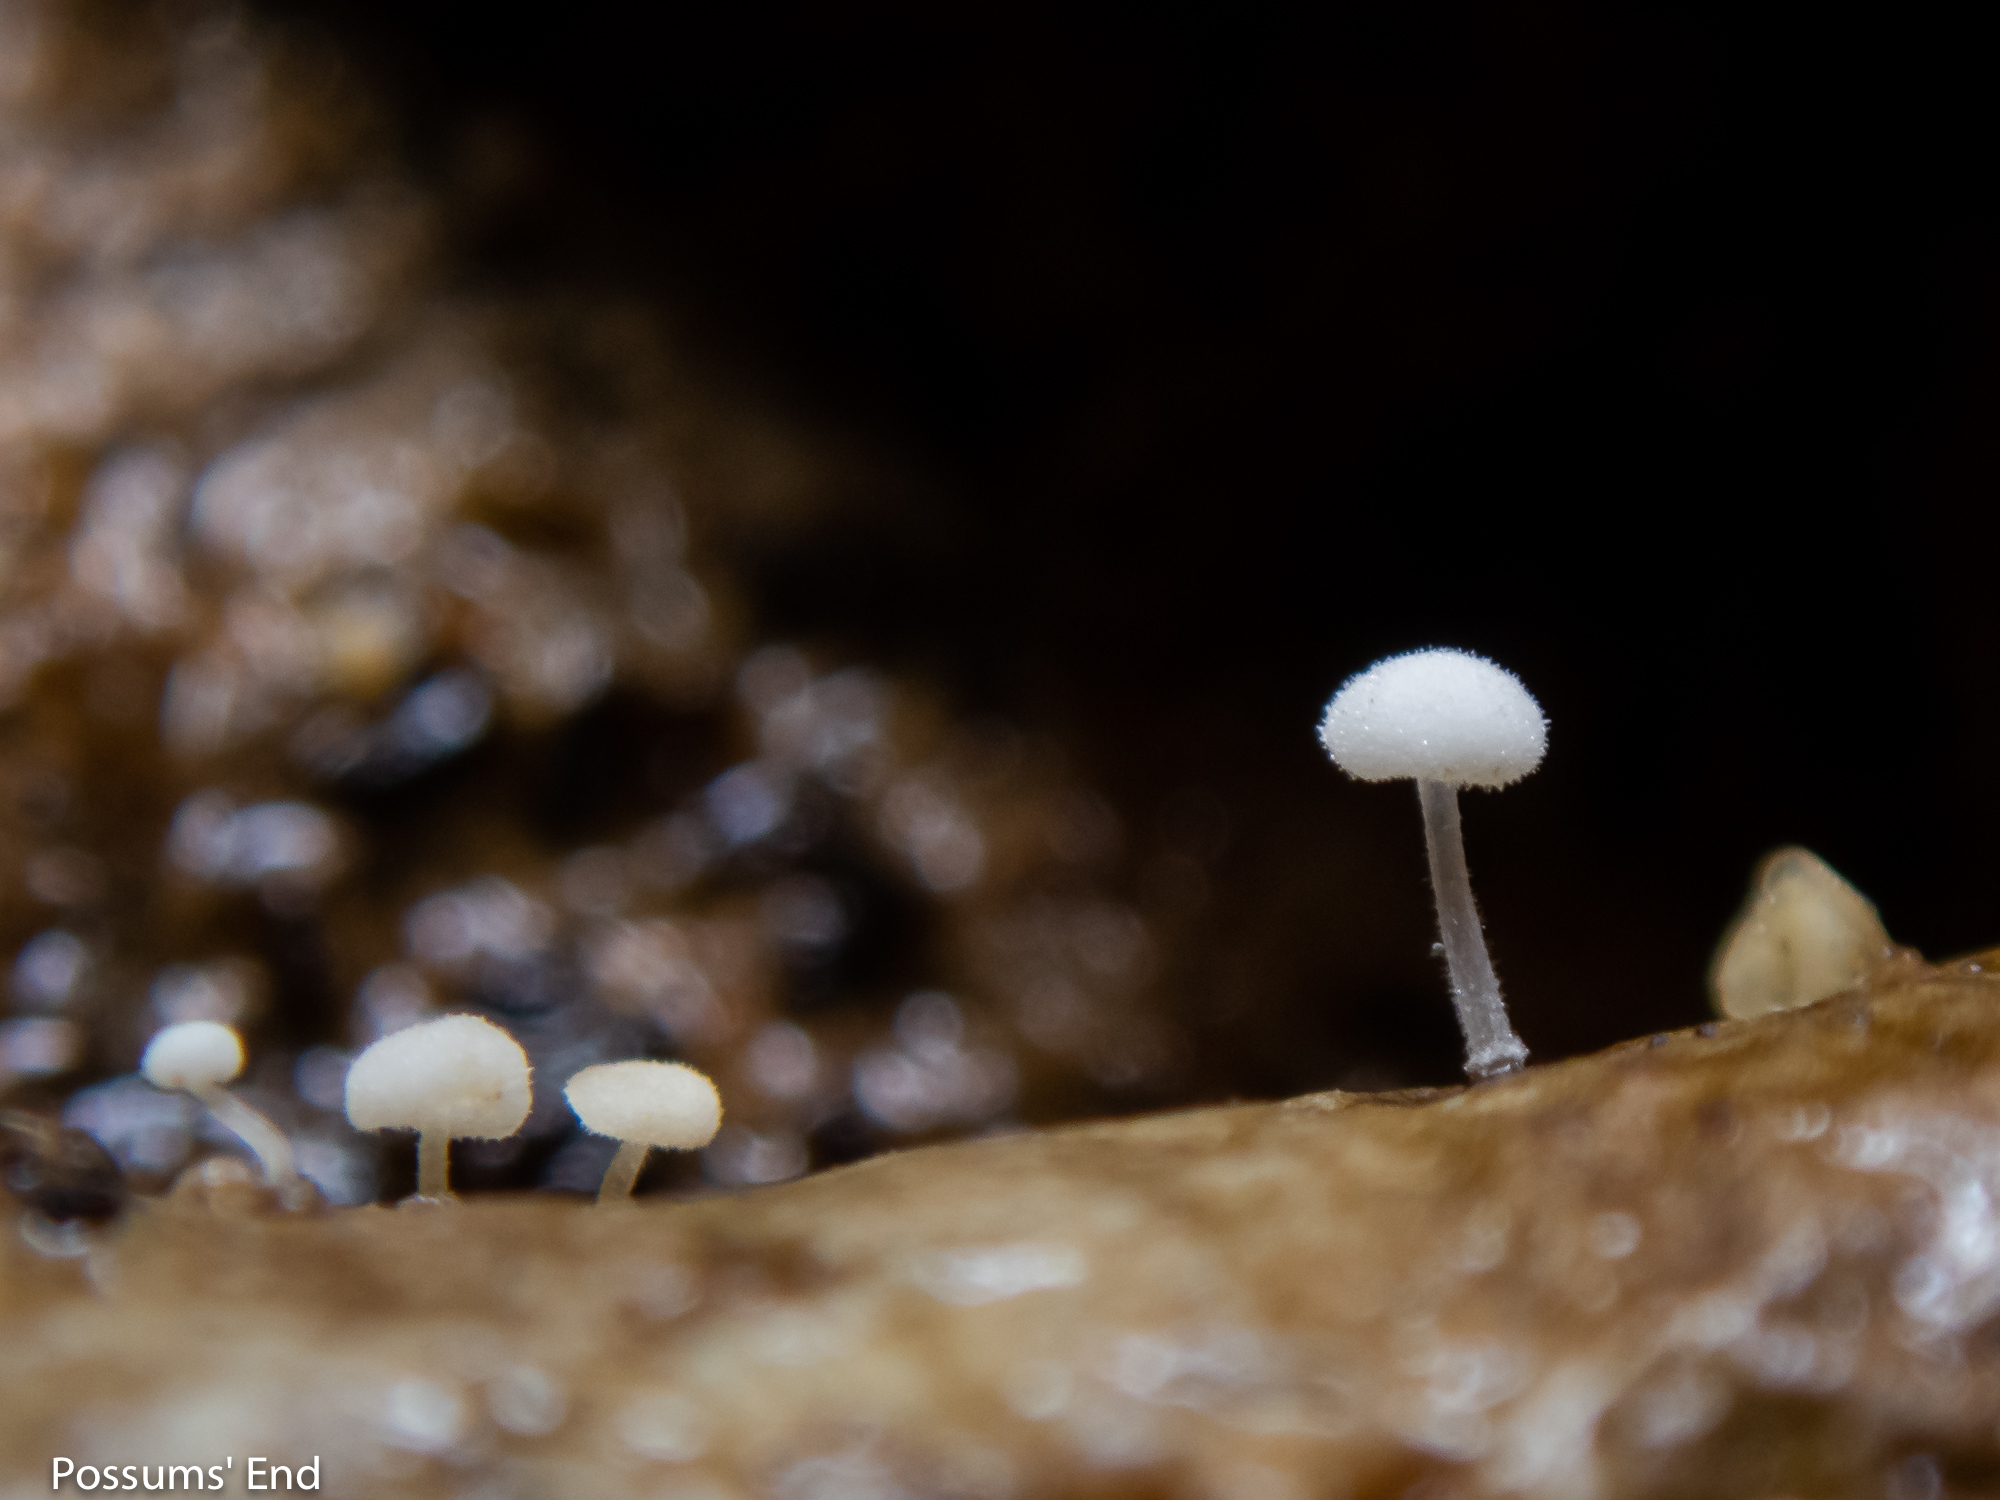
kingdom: Fungi
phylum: Basidiomycota
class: Agaricomycetes
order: Agaricales
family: Physalacriaceae
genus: Physalacria
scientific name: Physalacria stilboidea
